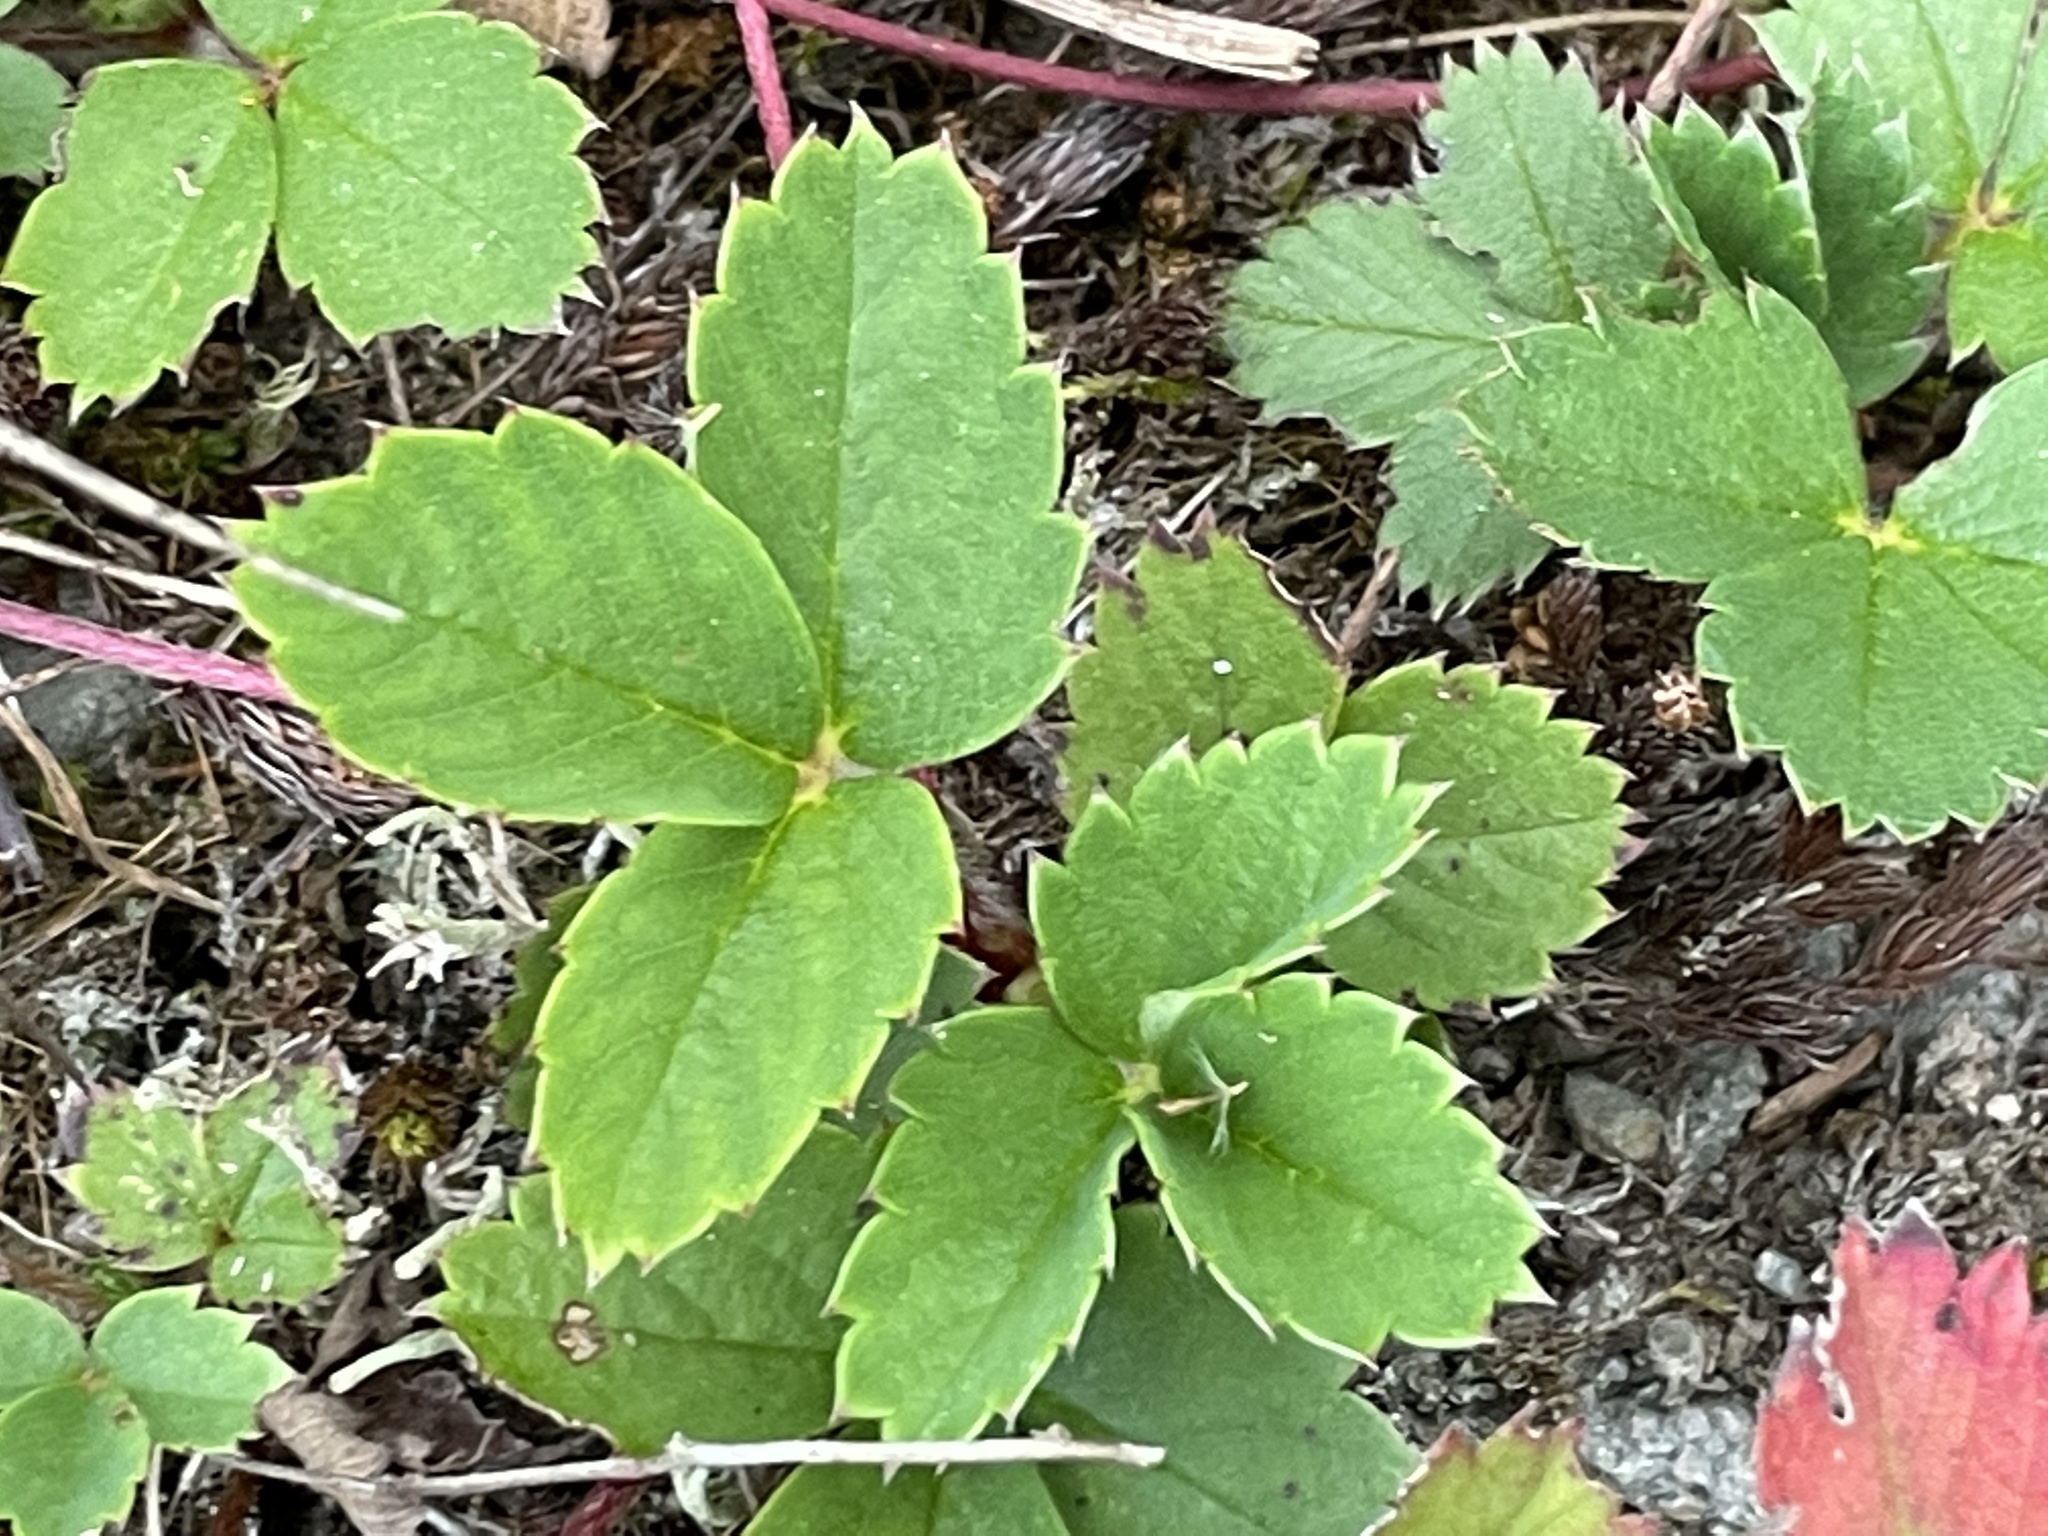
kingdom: Plantae
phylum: Tracheophyta
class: Magnoliopsida
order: Rosales
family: Rosaceae
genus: Fragaria
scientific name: Fragaria virginiana
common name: Thickleaved wild strawberry
